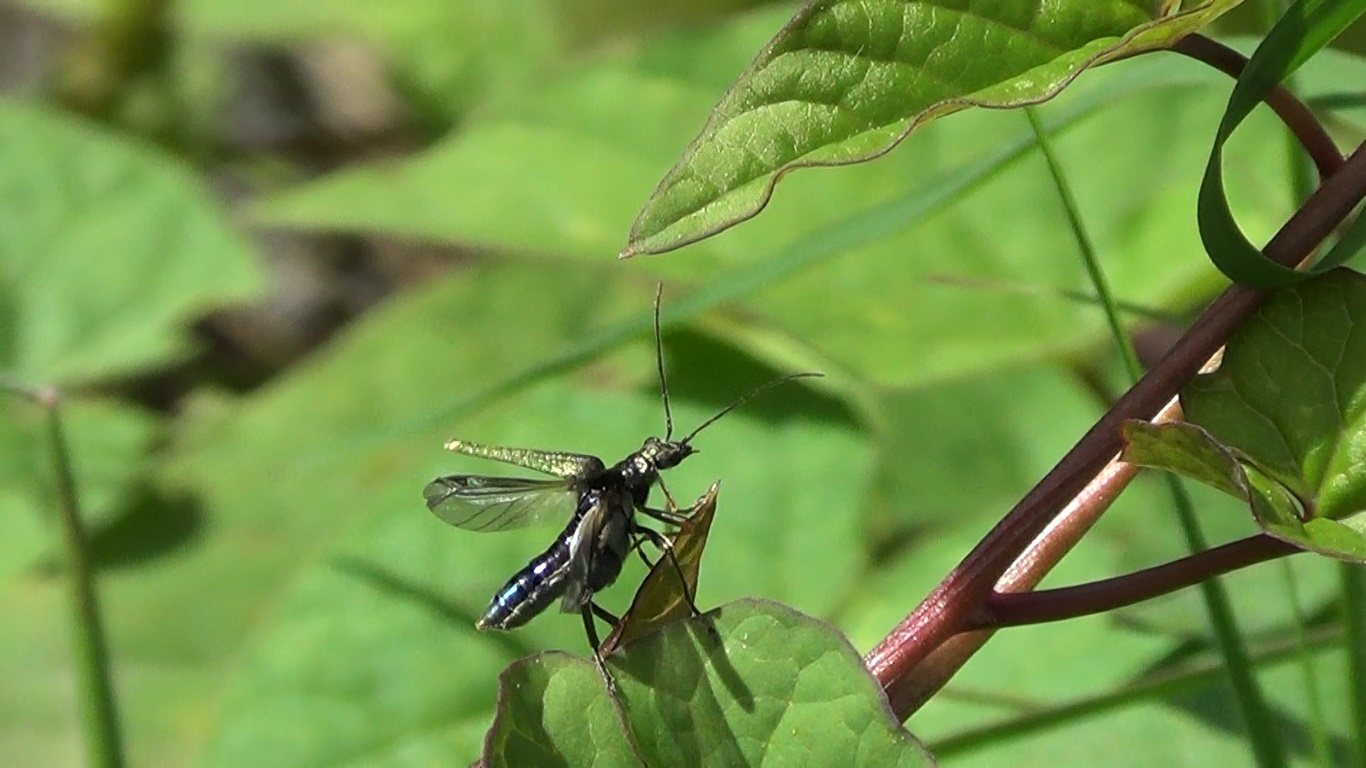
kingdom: Animalia
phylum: Arthropoda
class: Insecta
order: Coleoptera
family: Oedemeridae
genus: Oedemera
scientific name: Oedemera flavipes
